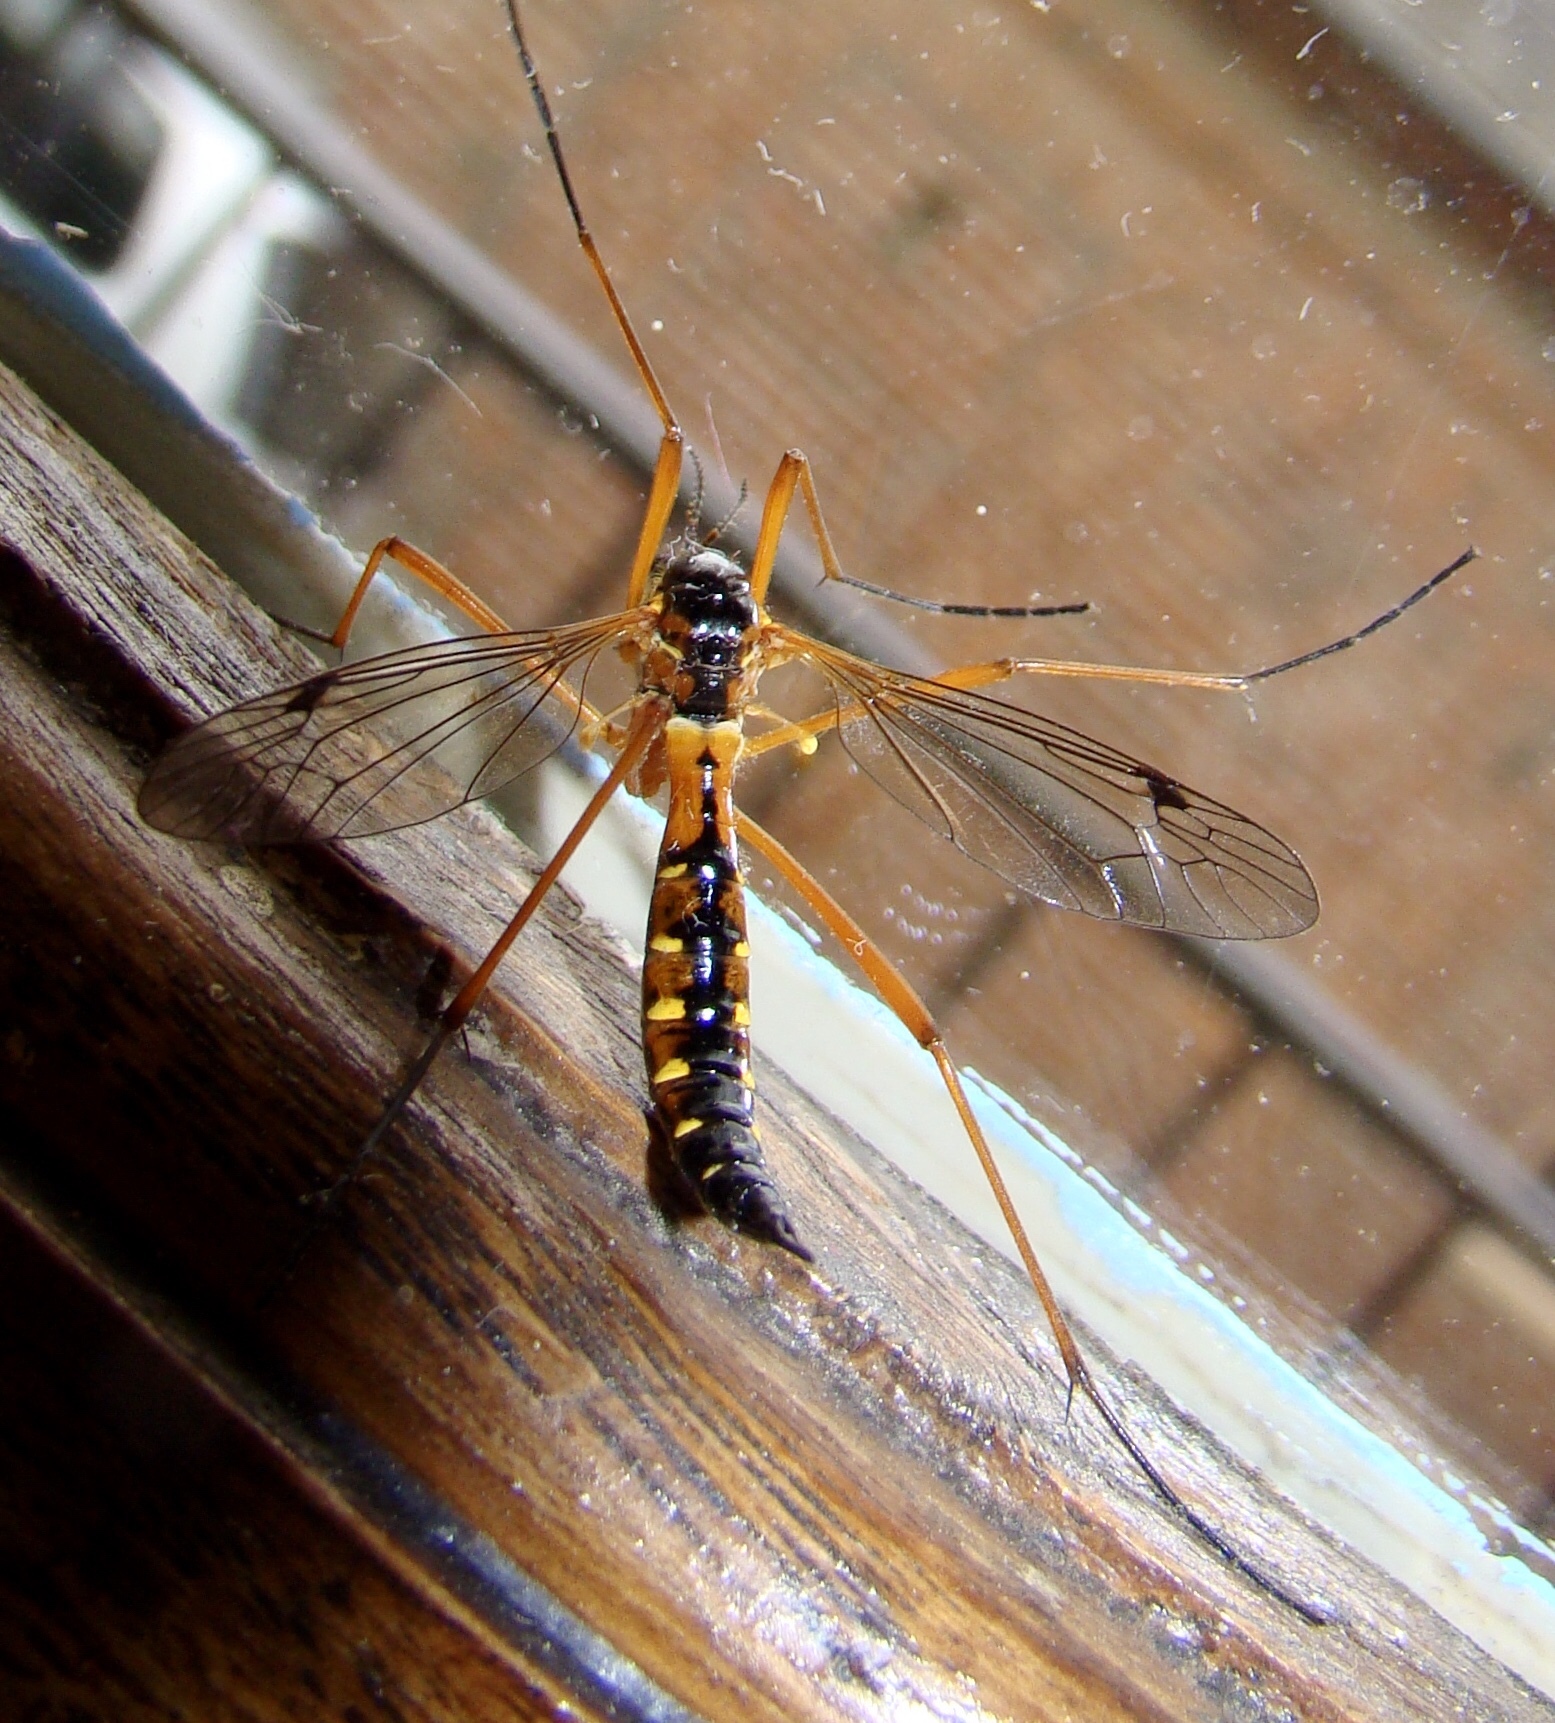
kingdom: Animalia
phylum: Arthropoda
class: Insecta
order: Diptera
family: Tipulidae
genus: Ctenophora
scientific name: Ctenophora pectinicornis
